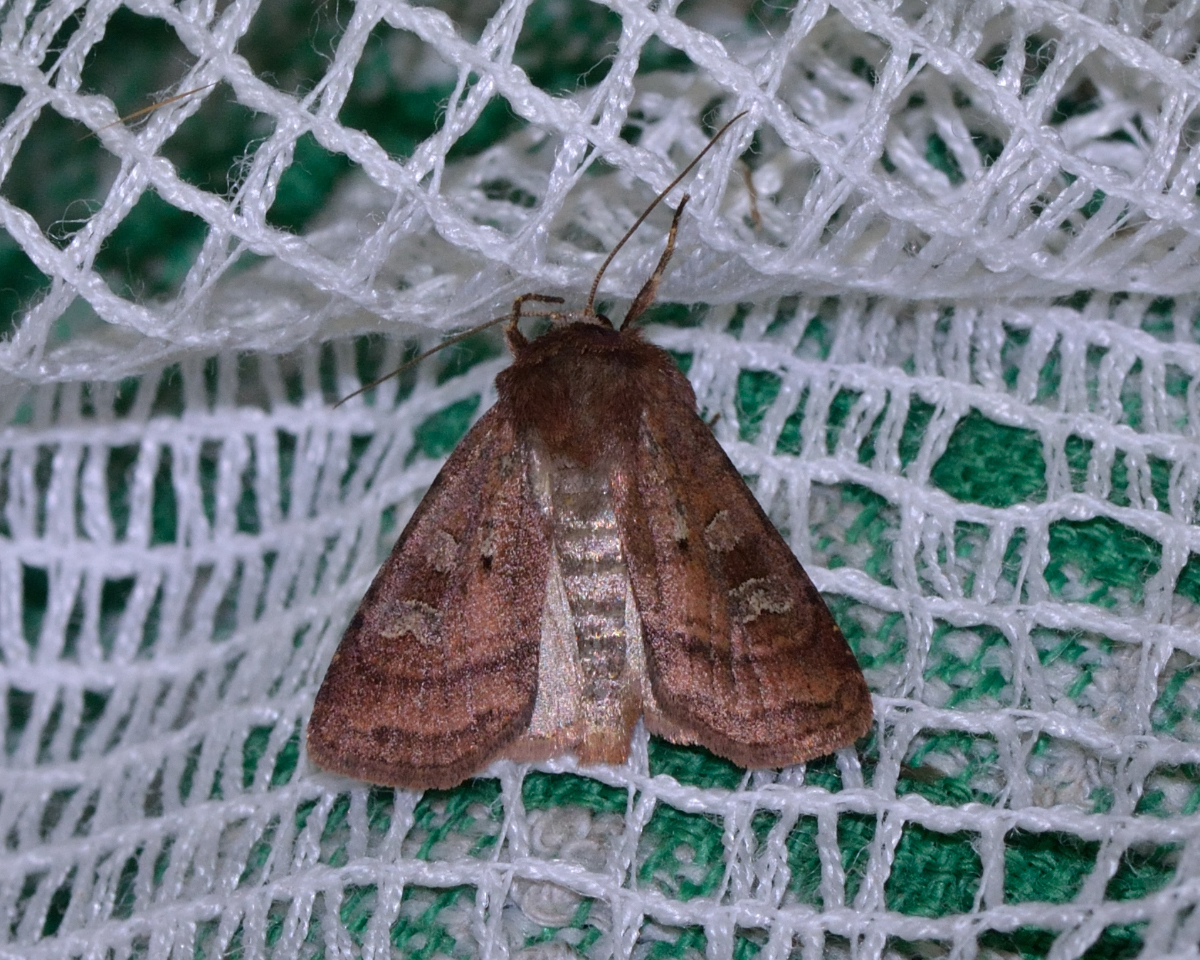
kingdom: Animalia
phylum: Arthropoda
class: Insecta
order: Lepidoptera
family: Noctuidae
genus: Diarsia
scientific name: Diarsia rubi
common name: Small square-spot
